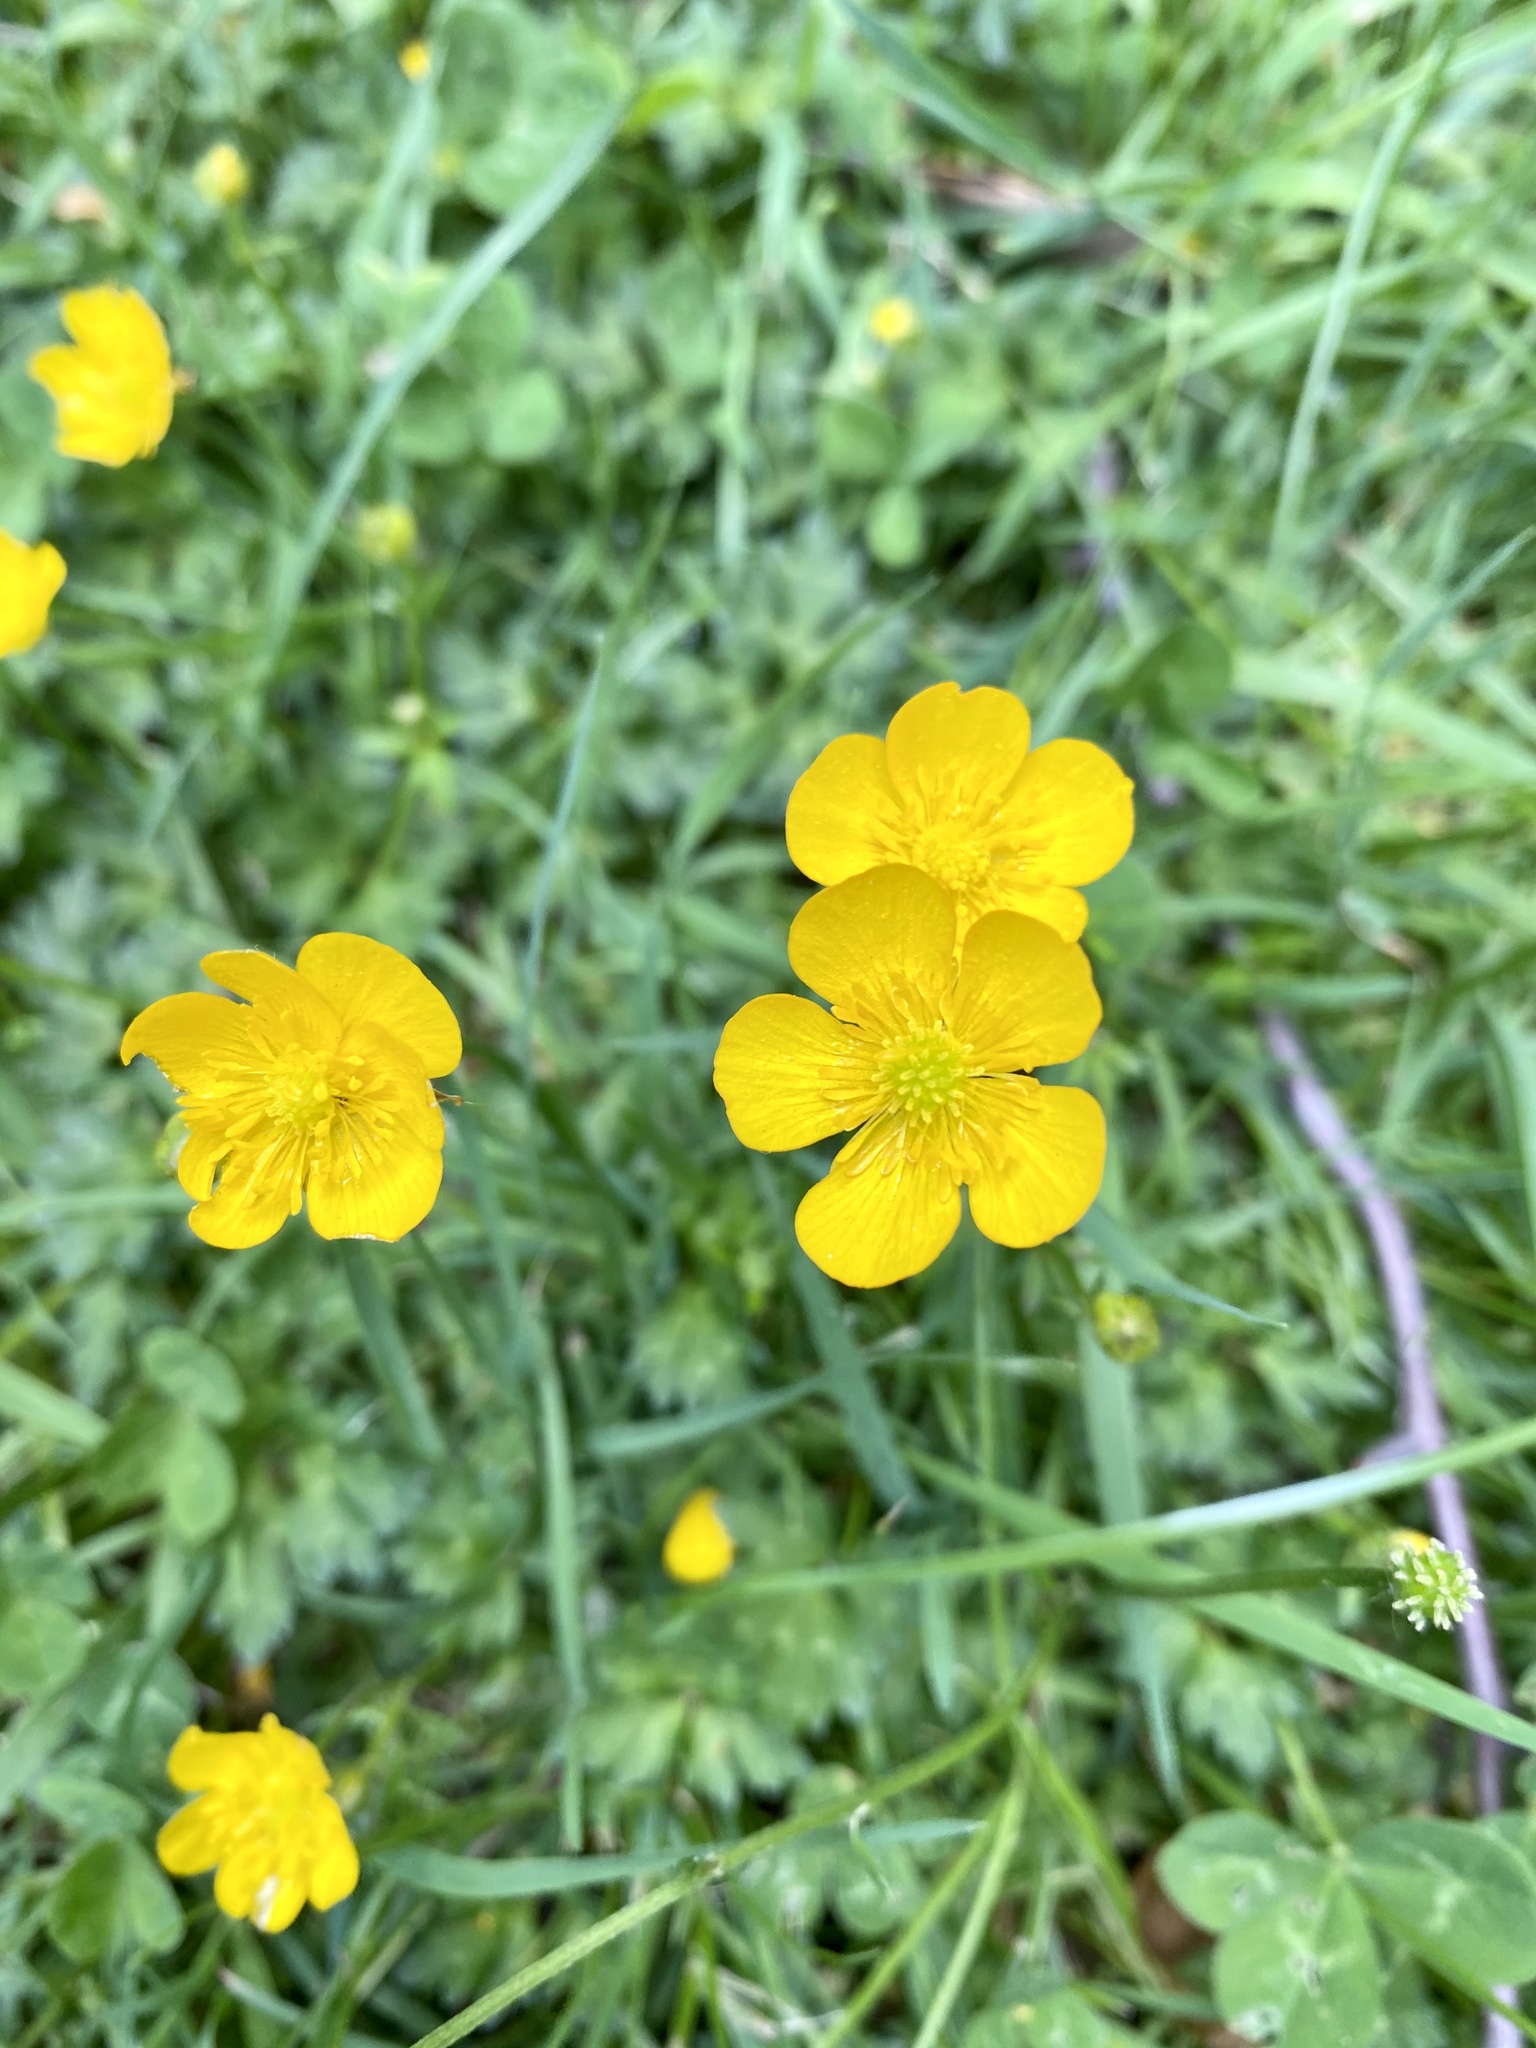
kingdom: Plantae
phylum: Tracheophyta
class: Magnoliopsida
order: Ranunculales
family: Ranunculaceae
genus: Ranunculus
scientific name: Ranunculus repens
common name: Creeping buttercup
